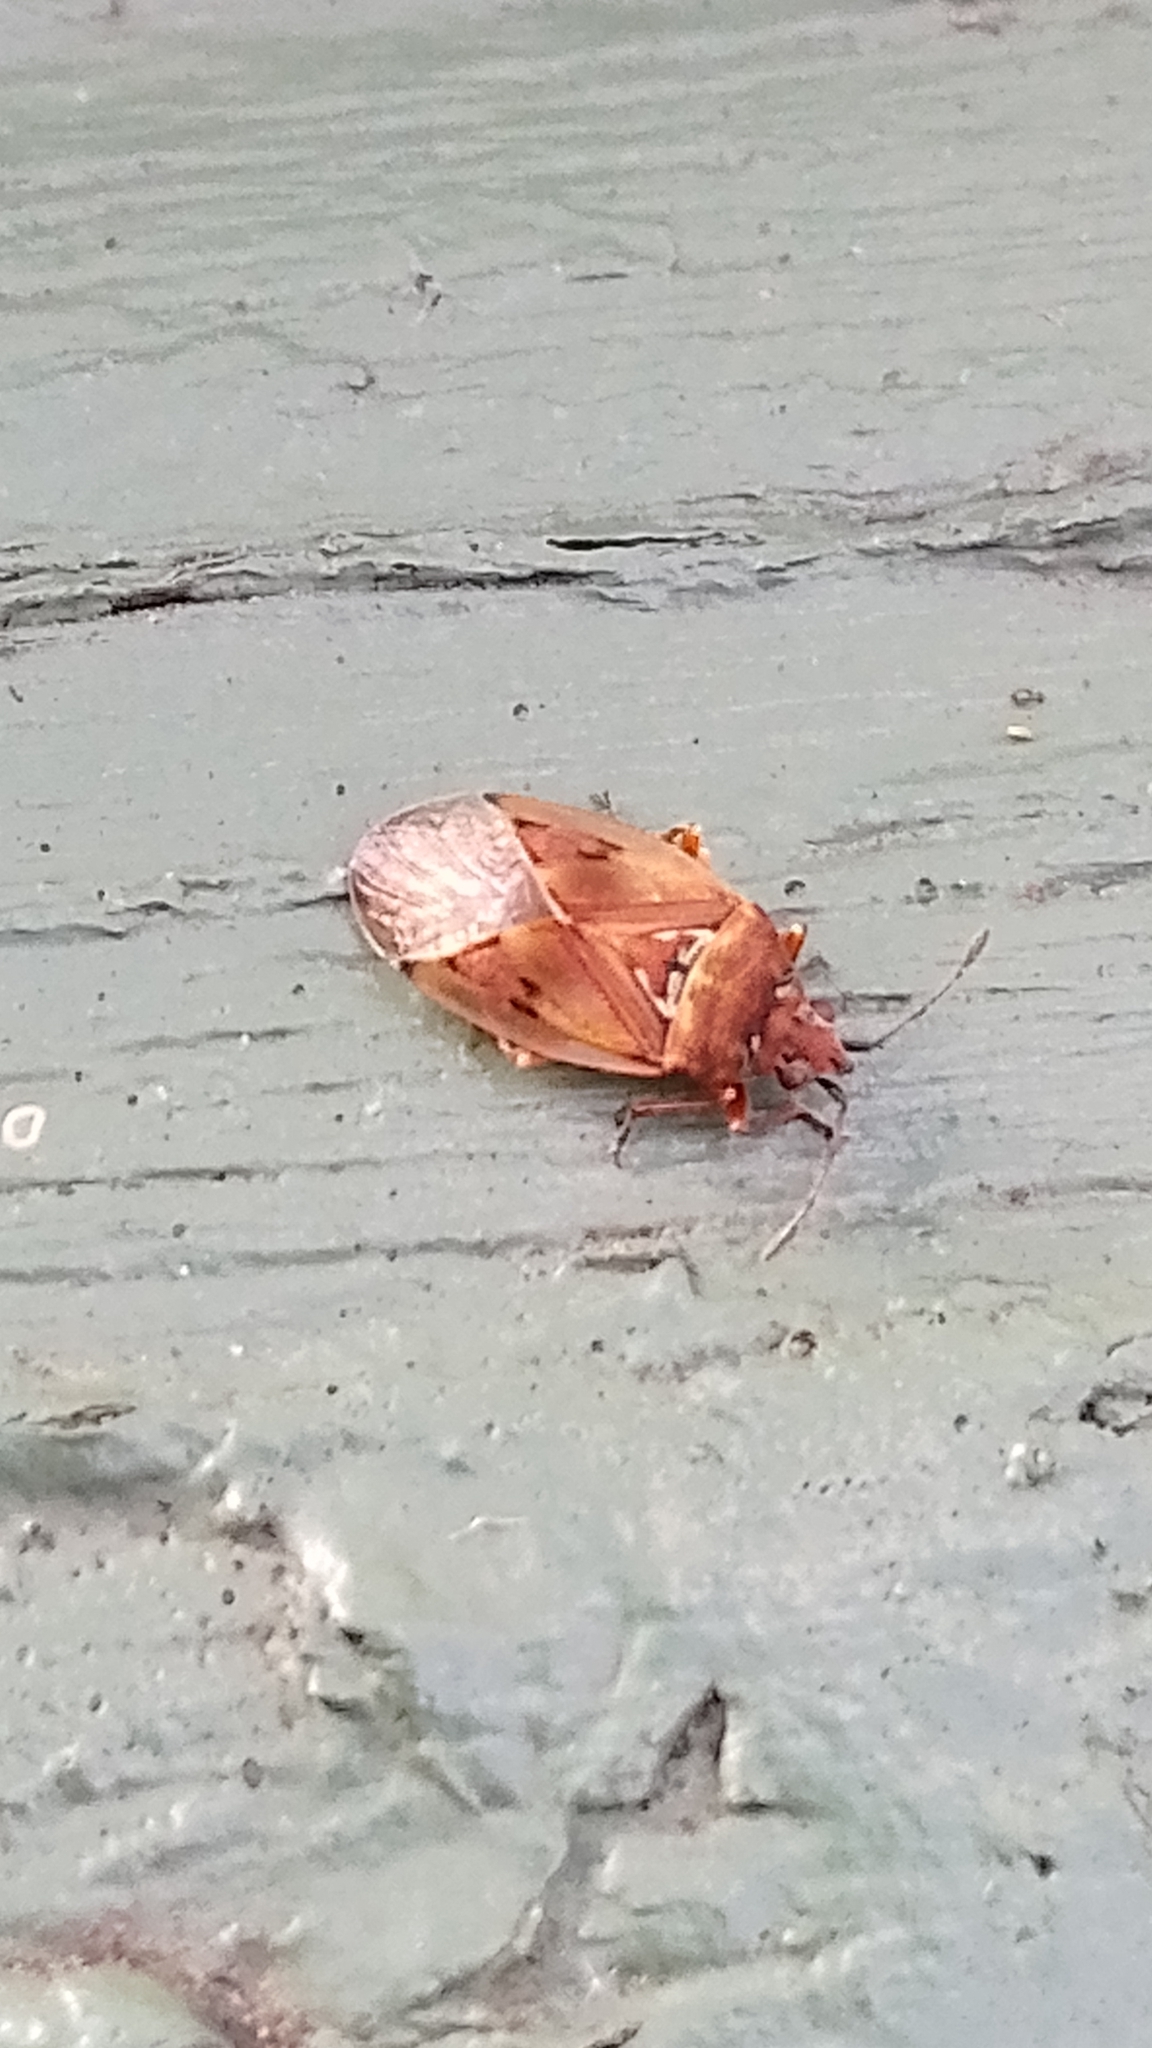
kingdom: Animalia
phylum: Arthropoda
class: Insecta
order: Hemiptera
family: Lygaeidae
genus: Kleidocerys
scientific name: Kleidocerys resedae
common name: Birch catkin bug
